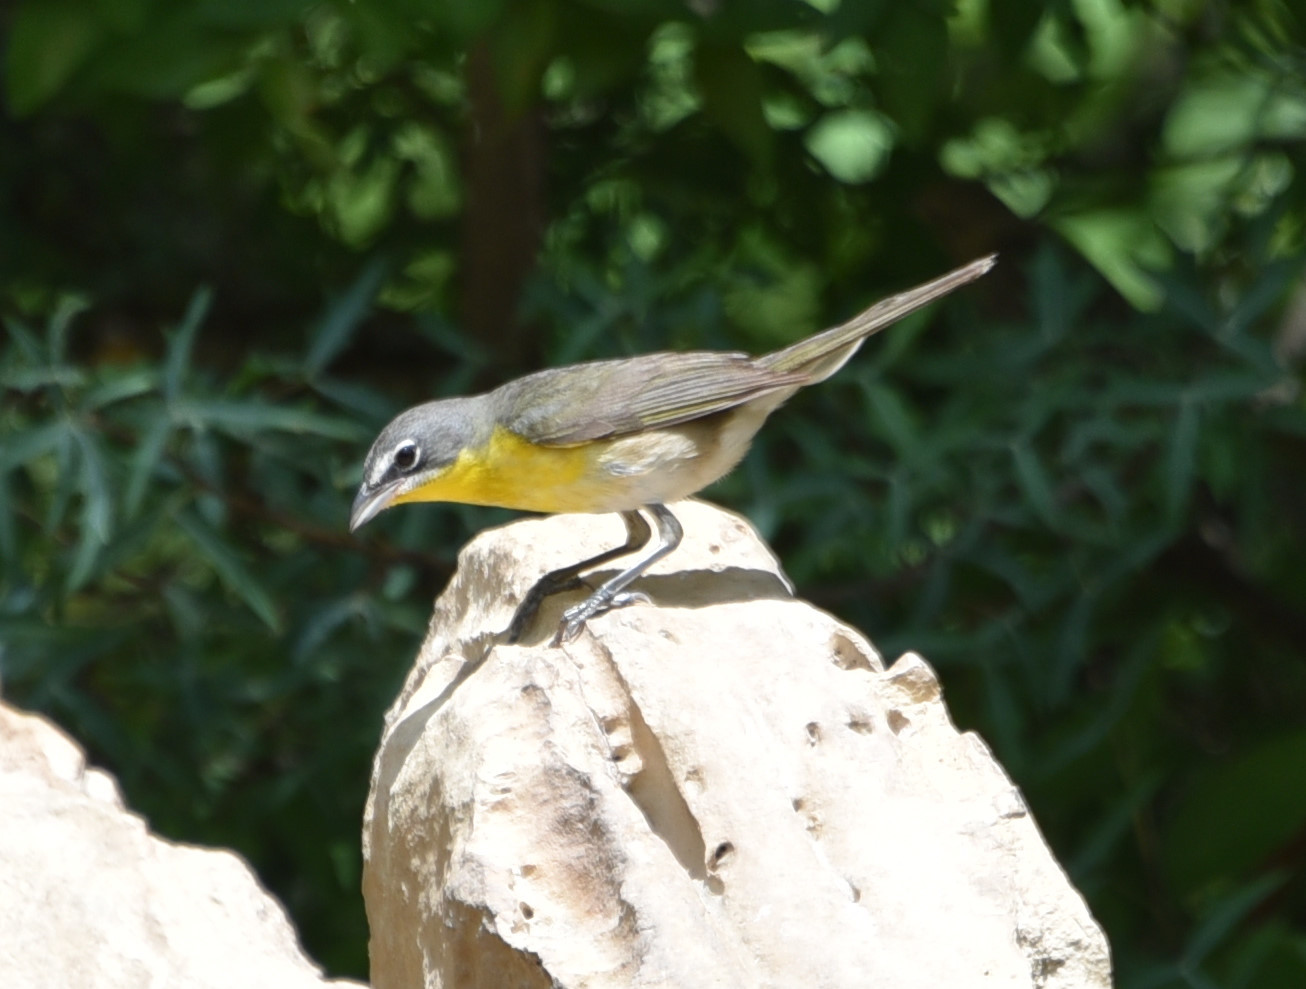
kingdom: Animalia
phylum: Chordata
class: Aves
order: Passeriformes
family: Parulidae
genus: Icteria
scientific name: Icteria virens
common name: Yellow-breasted chat
